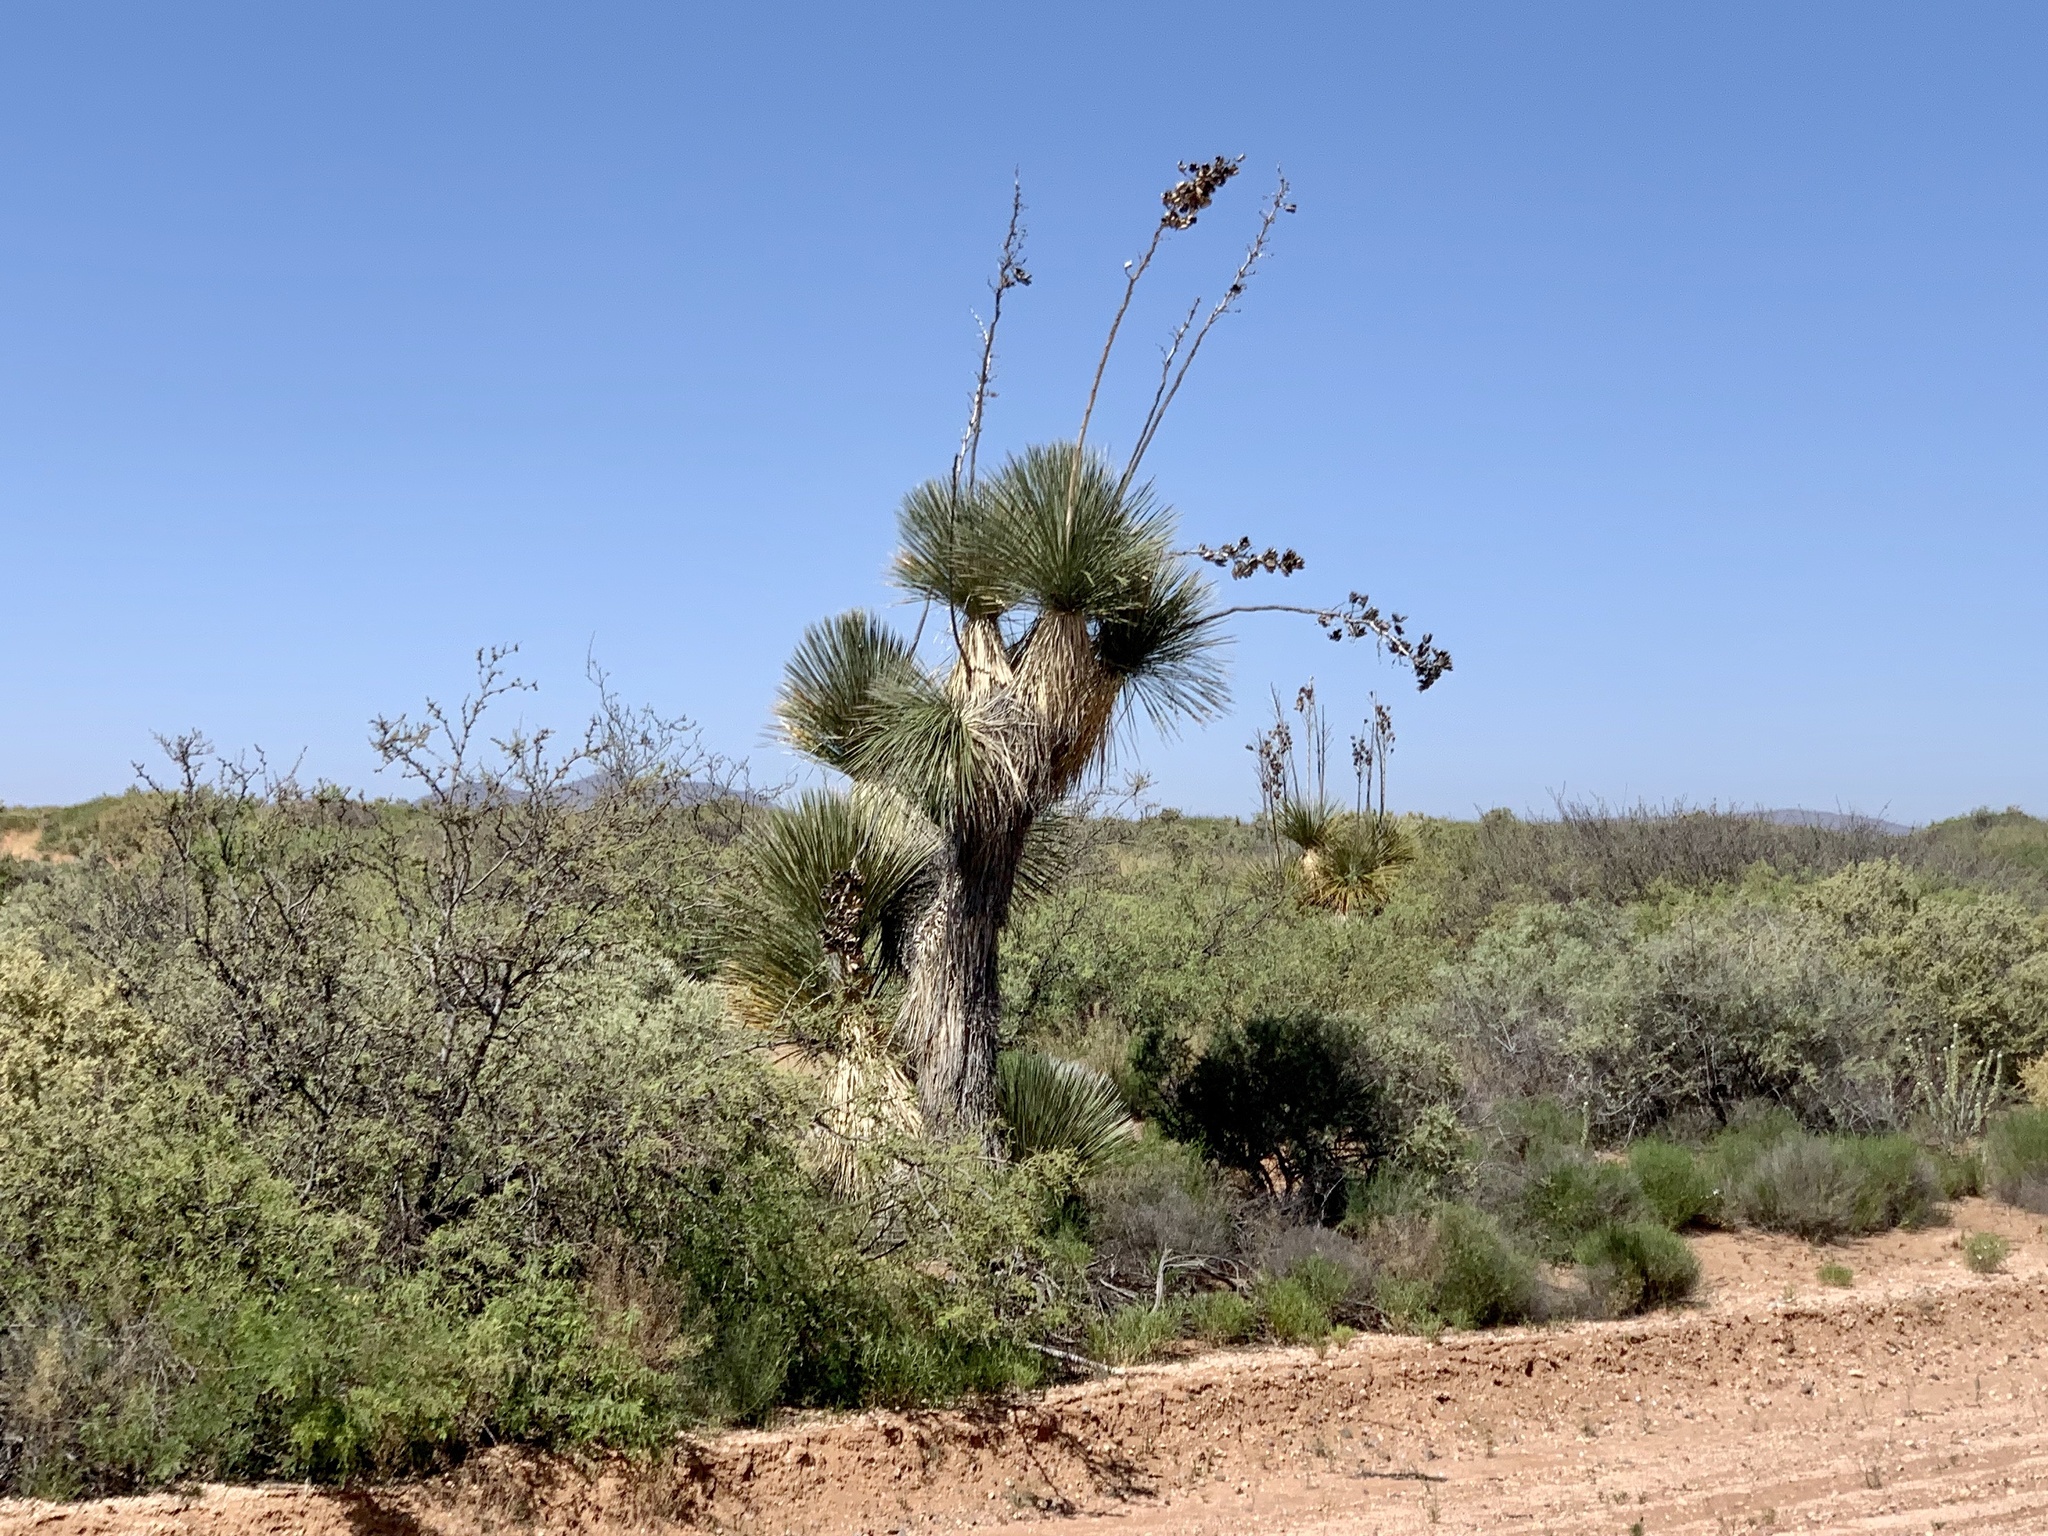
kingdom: Plantae
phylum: Tracheophyta
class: Liliopsida
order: Asparagales
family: Asparagaceae
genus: Yucca
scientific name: Yucca elata
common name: Palmella
